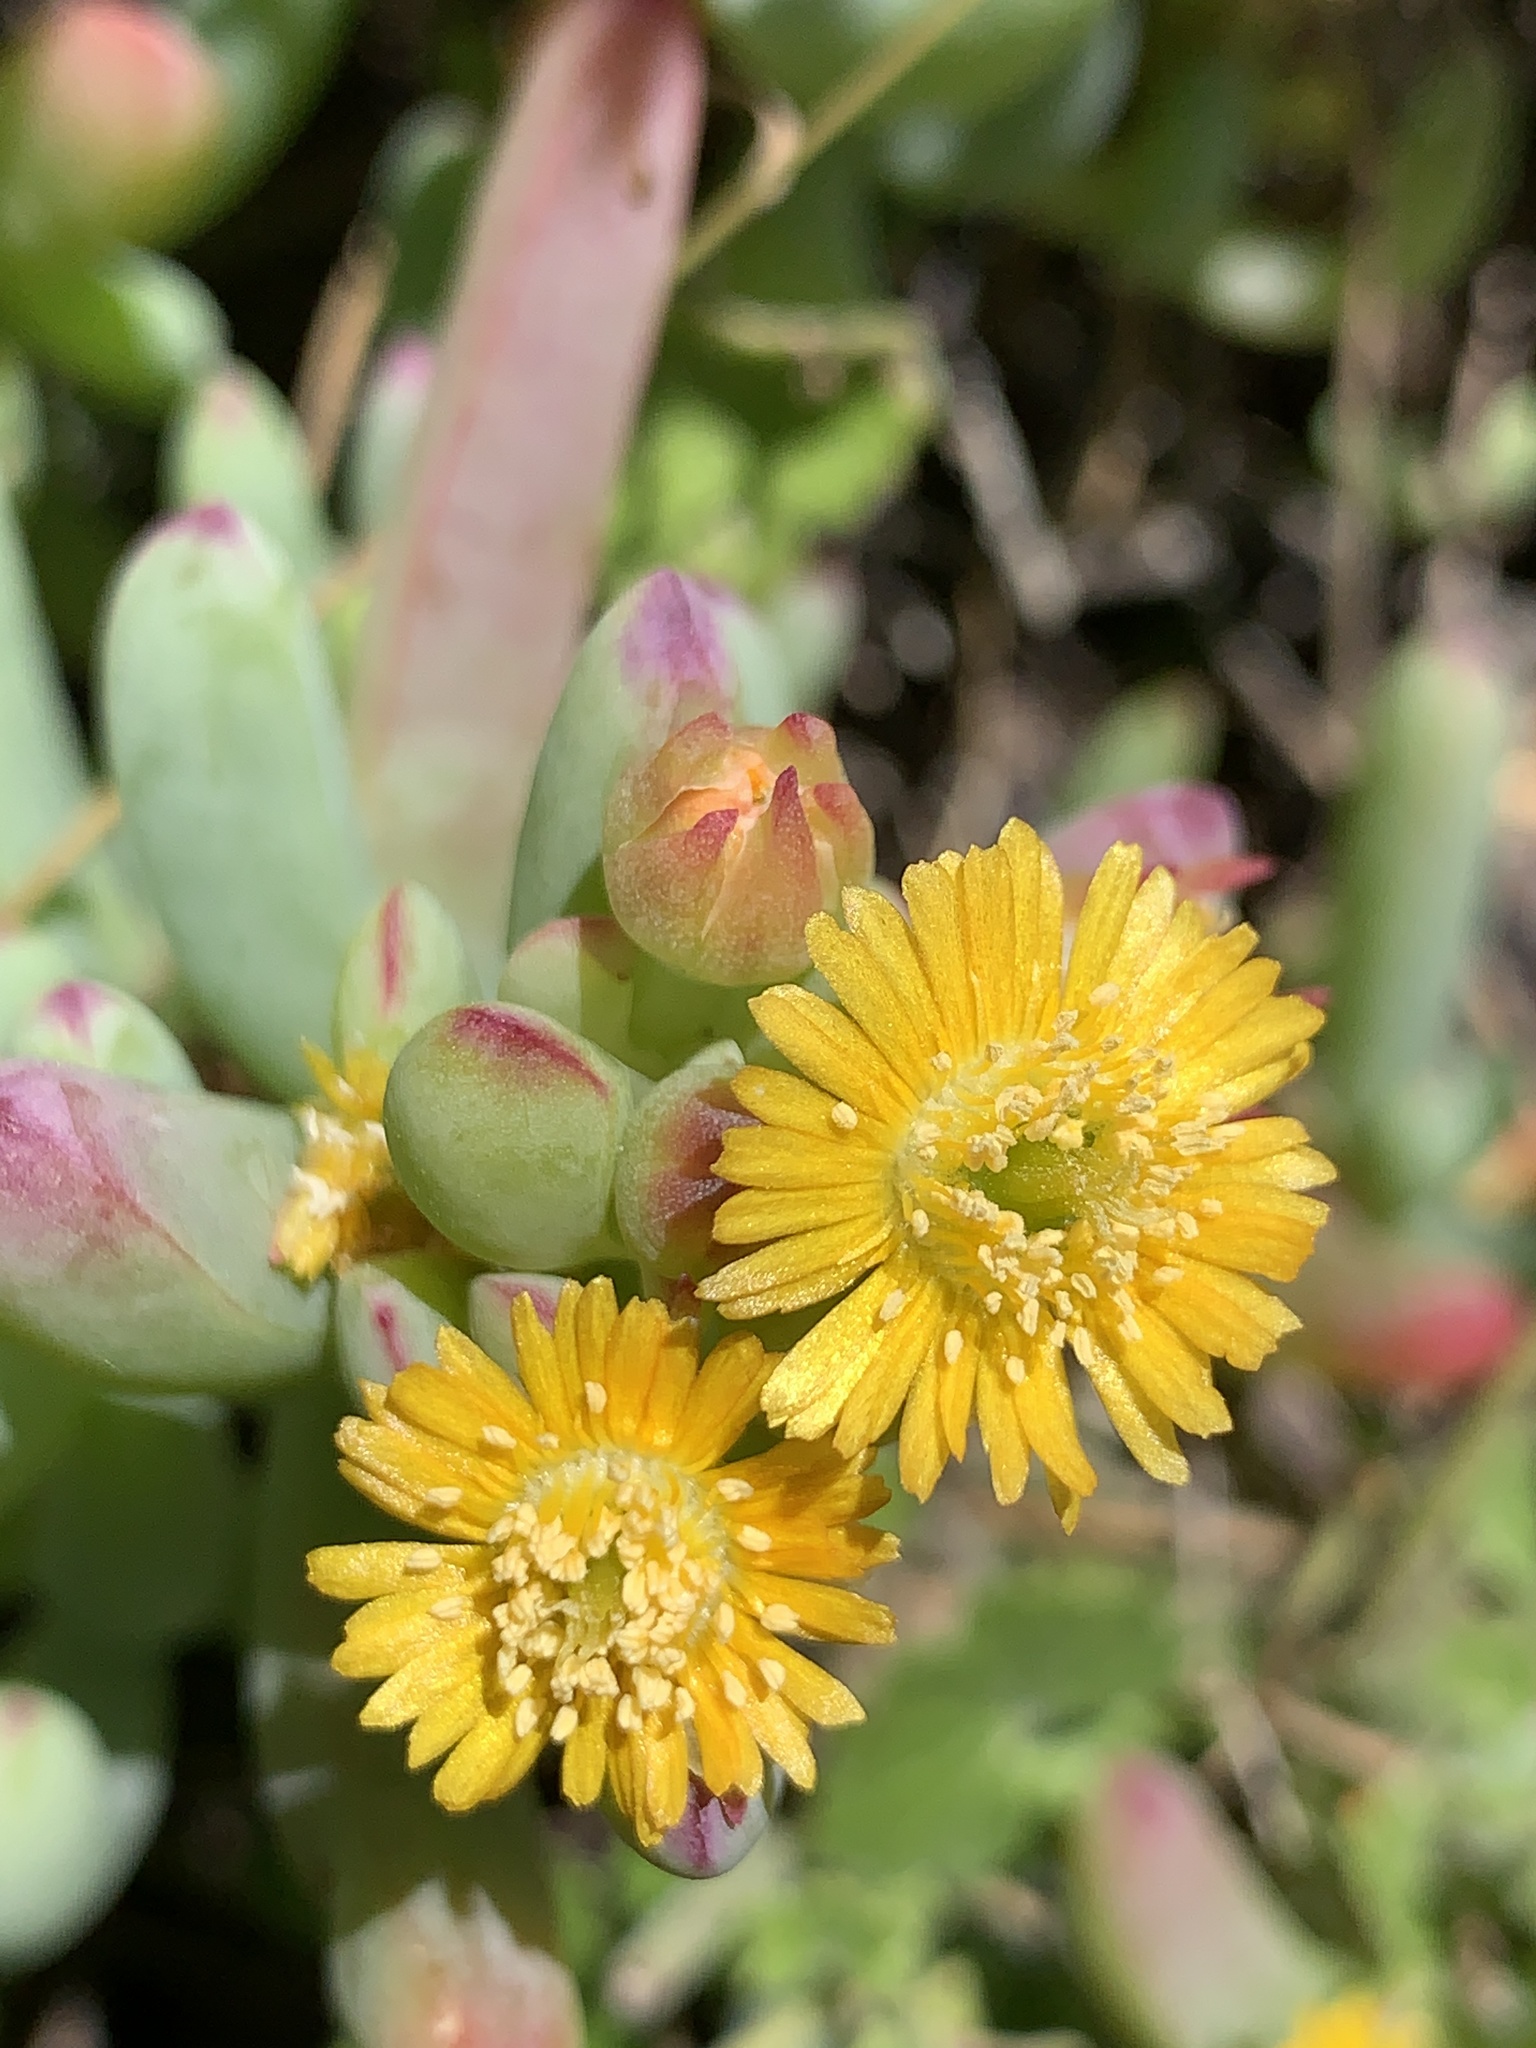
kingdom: Plantae
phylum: Tracheophyta
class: Magnoliopsida
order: Caryophyllales
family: Aizoaceae
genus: Scopelogena
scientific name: Scopelogena verruculata
